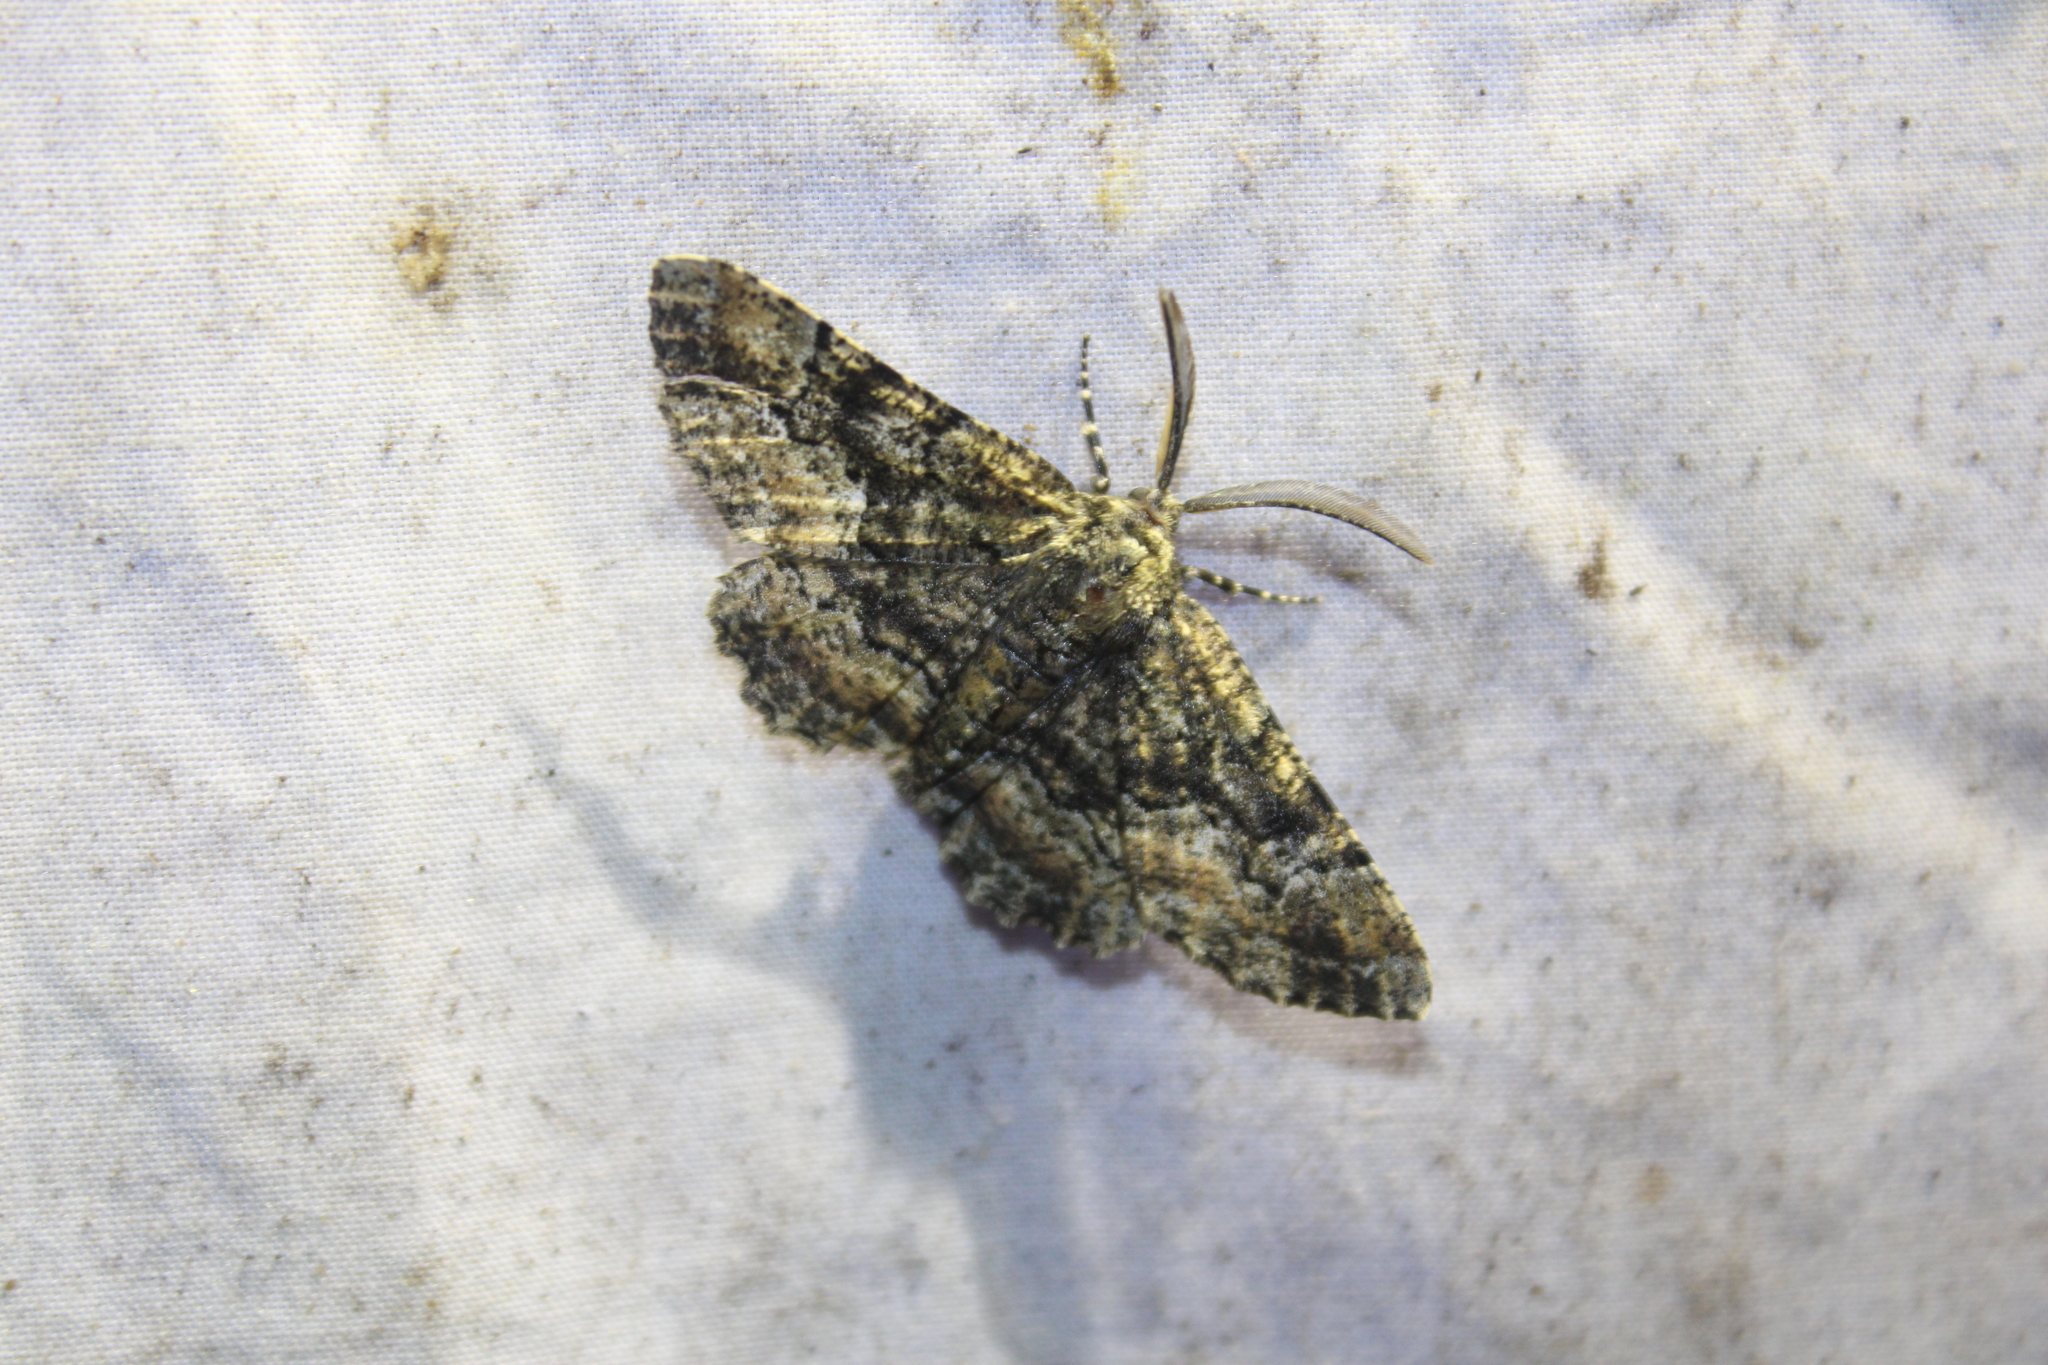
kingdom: Animalia
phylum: Arthropoda
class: Insecta
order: Lepidoptera
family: Geometridae
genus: Phaeoura
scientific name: Phaeoura quernaria
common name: Oak beauty
